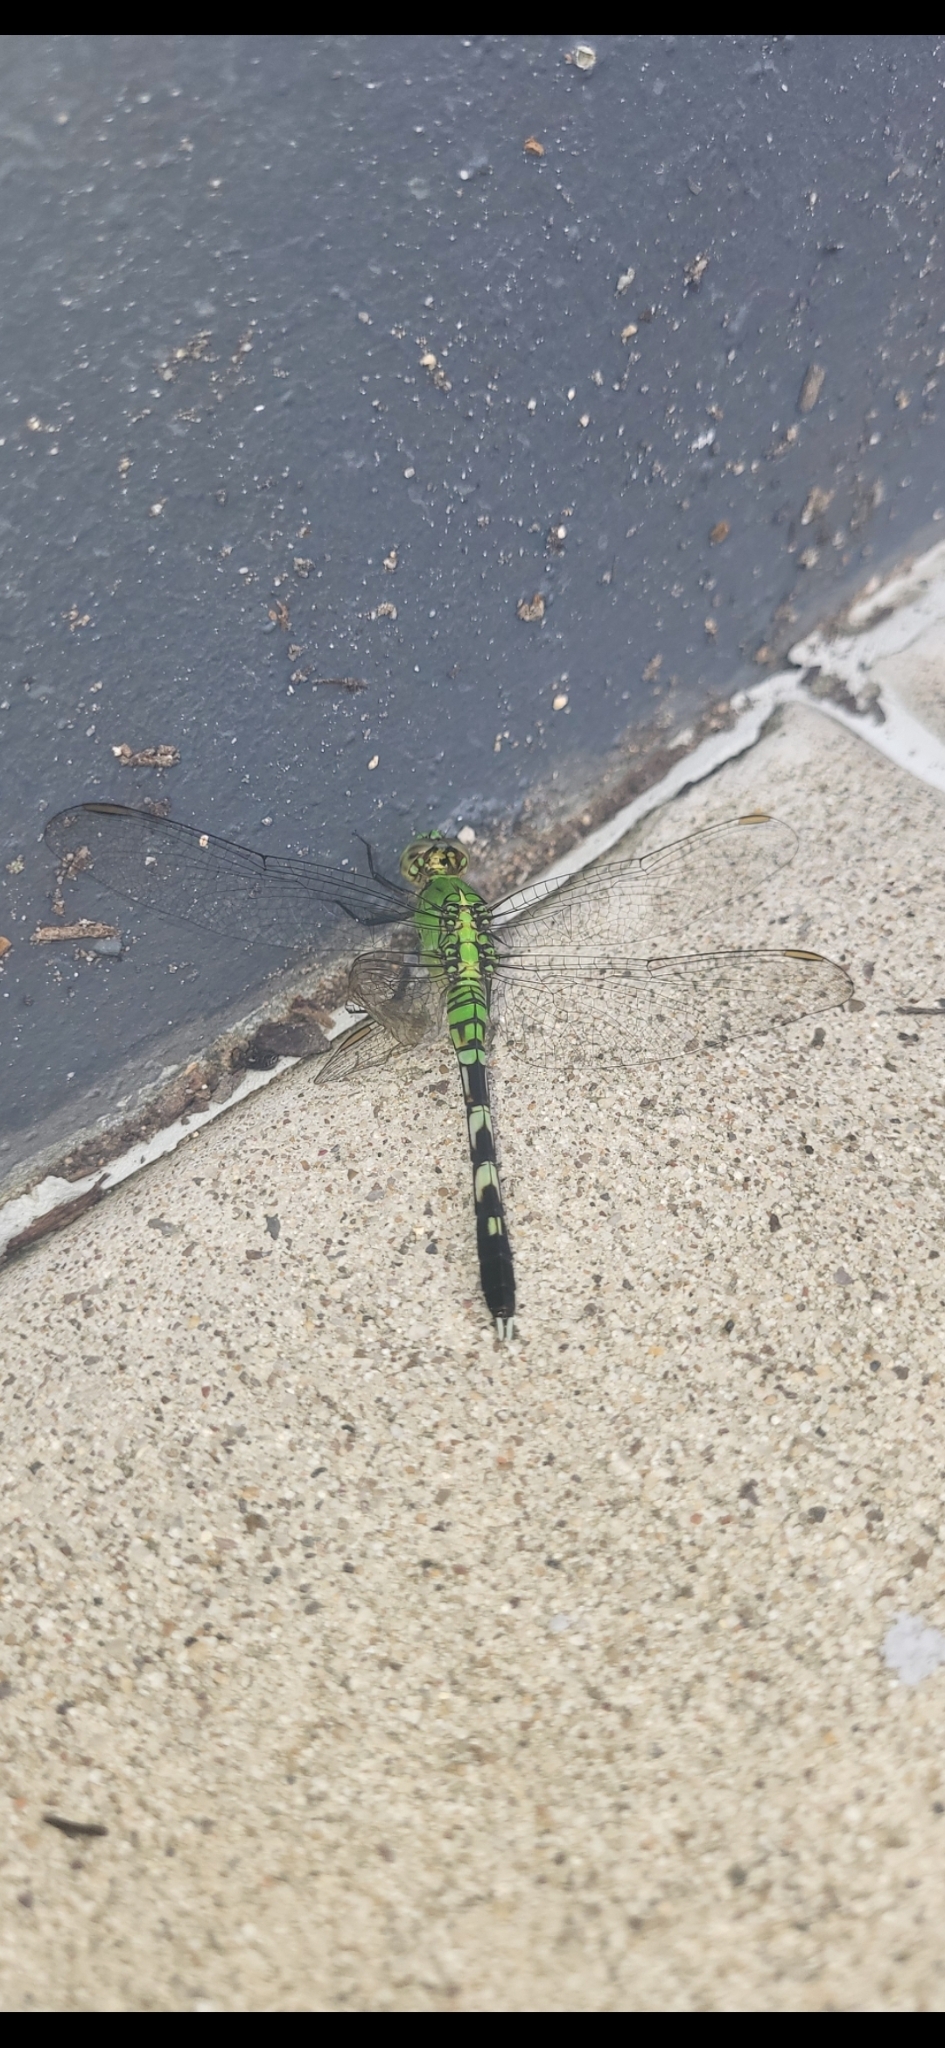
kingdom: Animalia
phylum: Arthropoda
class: Insecta
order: Odonata
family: Libellulidae
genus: Erythemis
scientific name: Erythemis simplicicollis
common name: Eastern pondhawk
